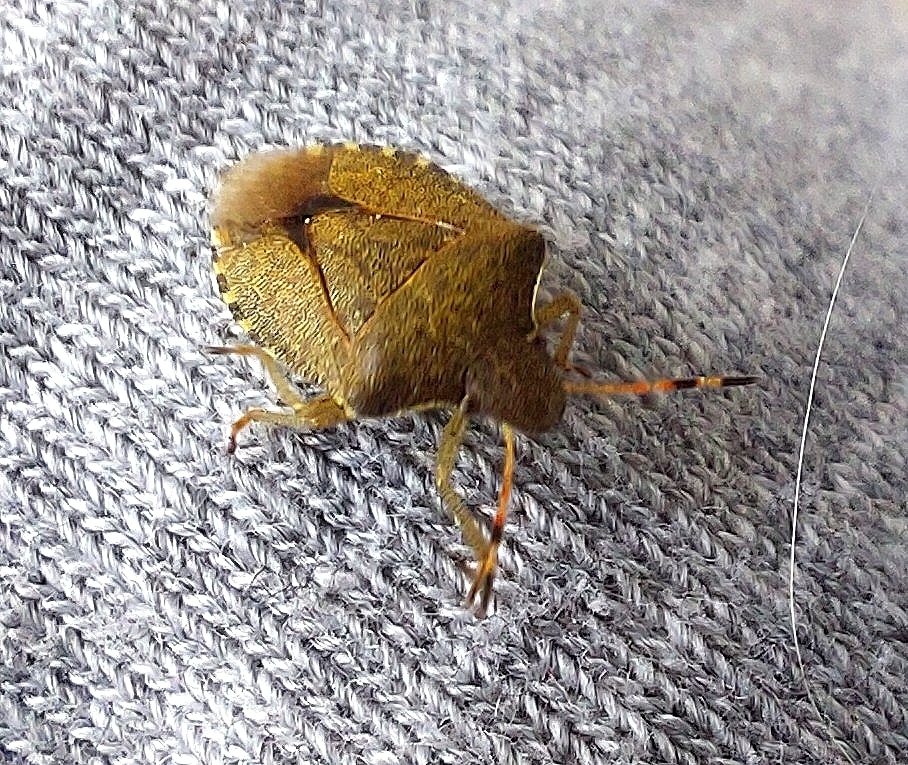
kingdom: Animalia
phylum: Arthropoda
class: Insecta
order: Hemiptera
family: Pentatomidae
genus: Holcostethus
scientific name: Holcostethus strictus
